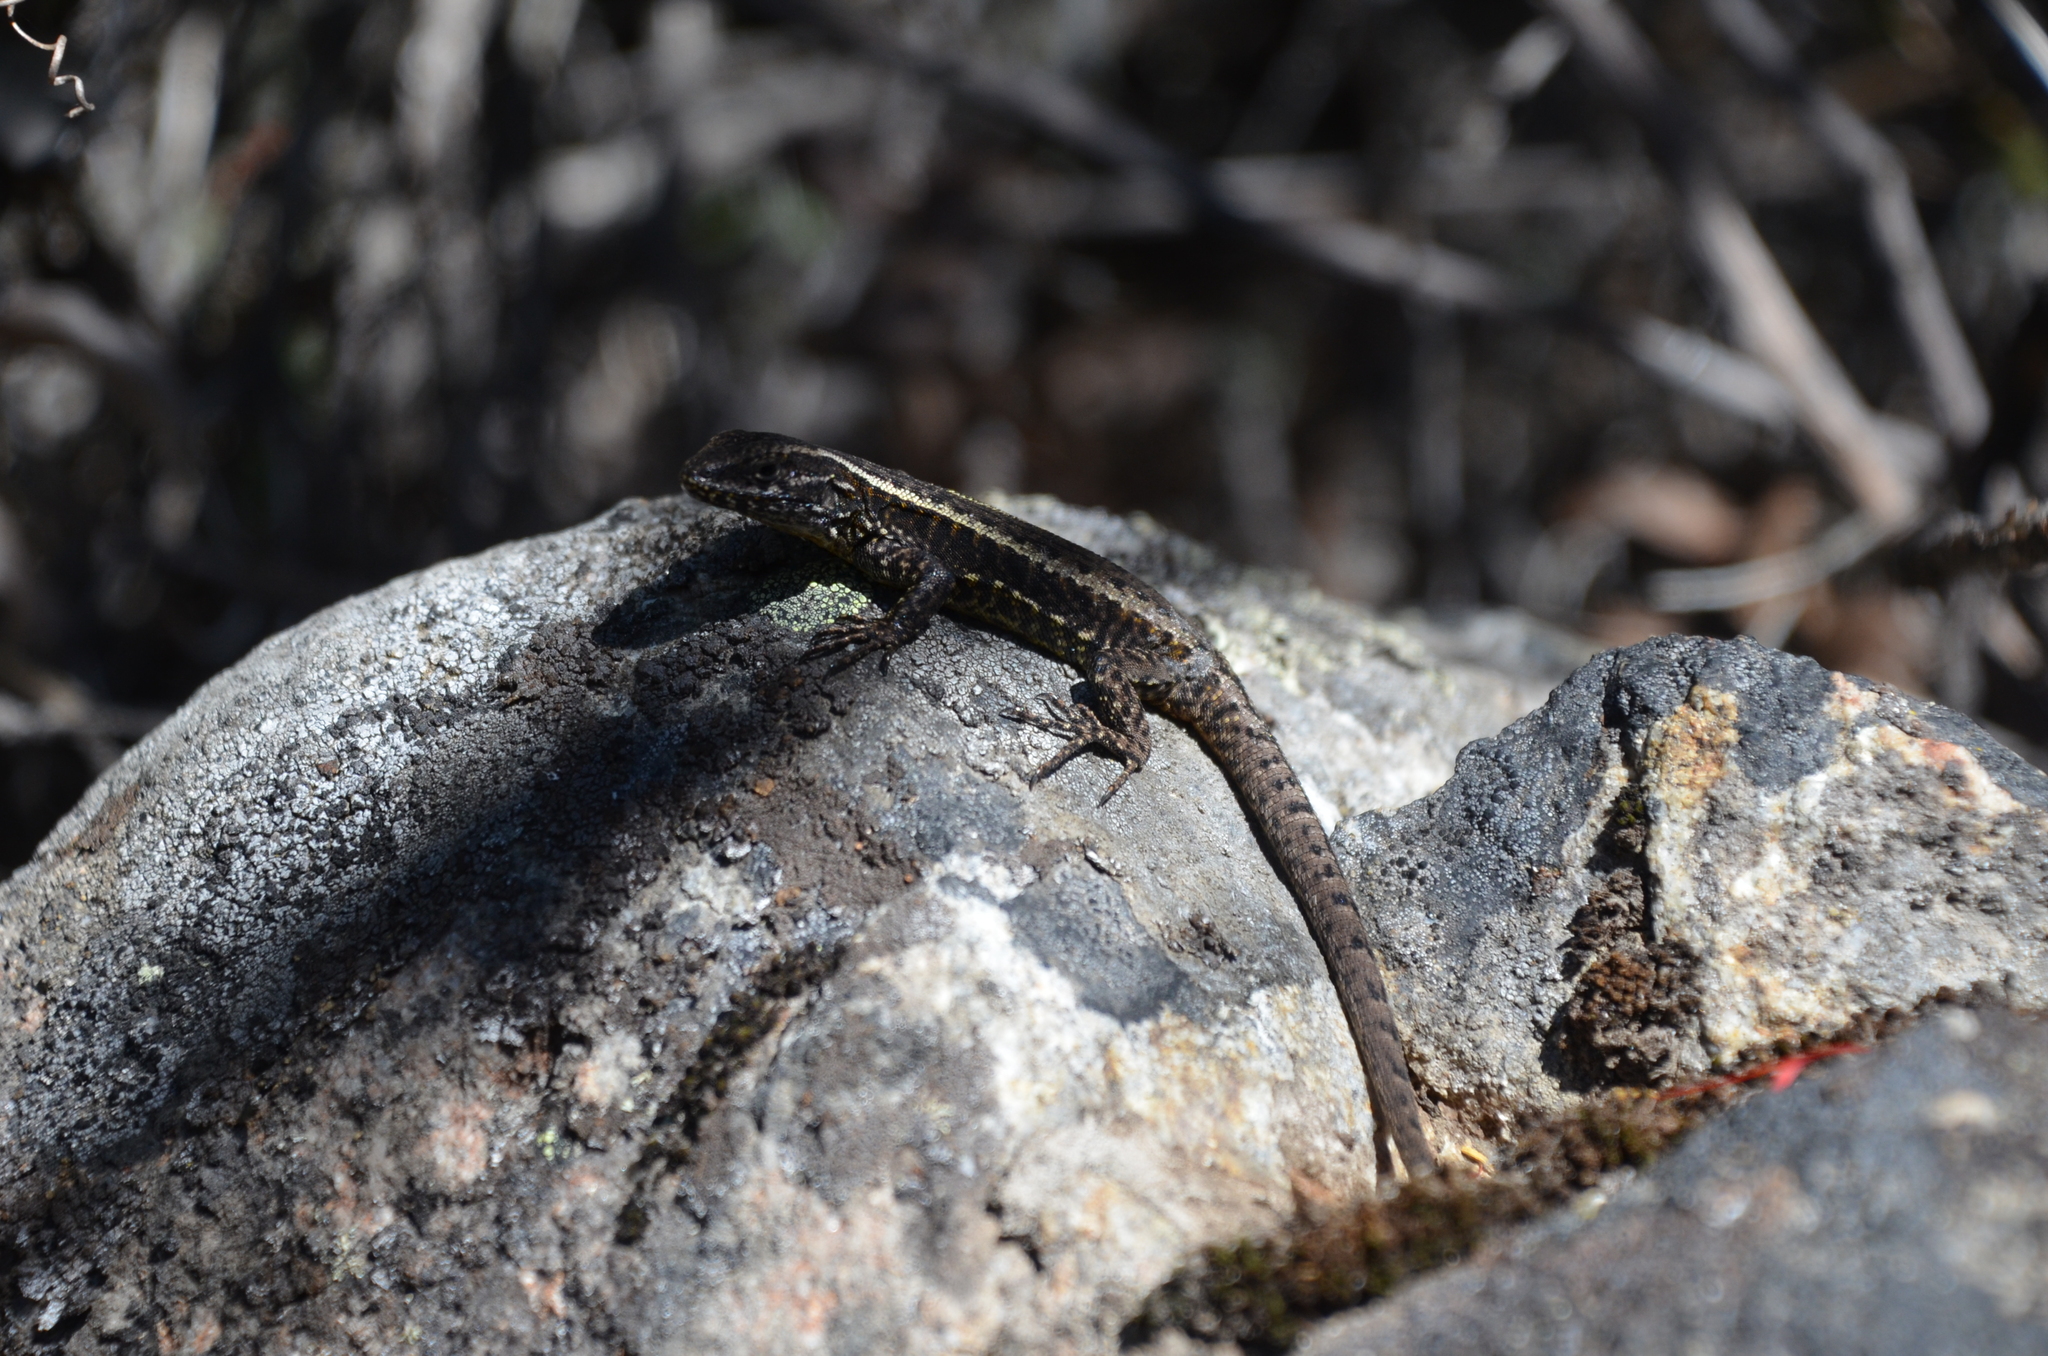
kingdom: Animalia
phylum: Chordata
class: Squamata
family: Liolaemidae
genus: Liolaemus
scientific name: Liolaemus pictus
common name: Painted tree iguana
